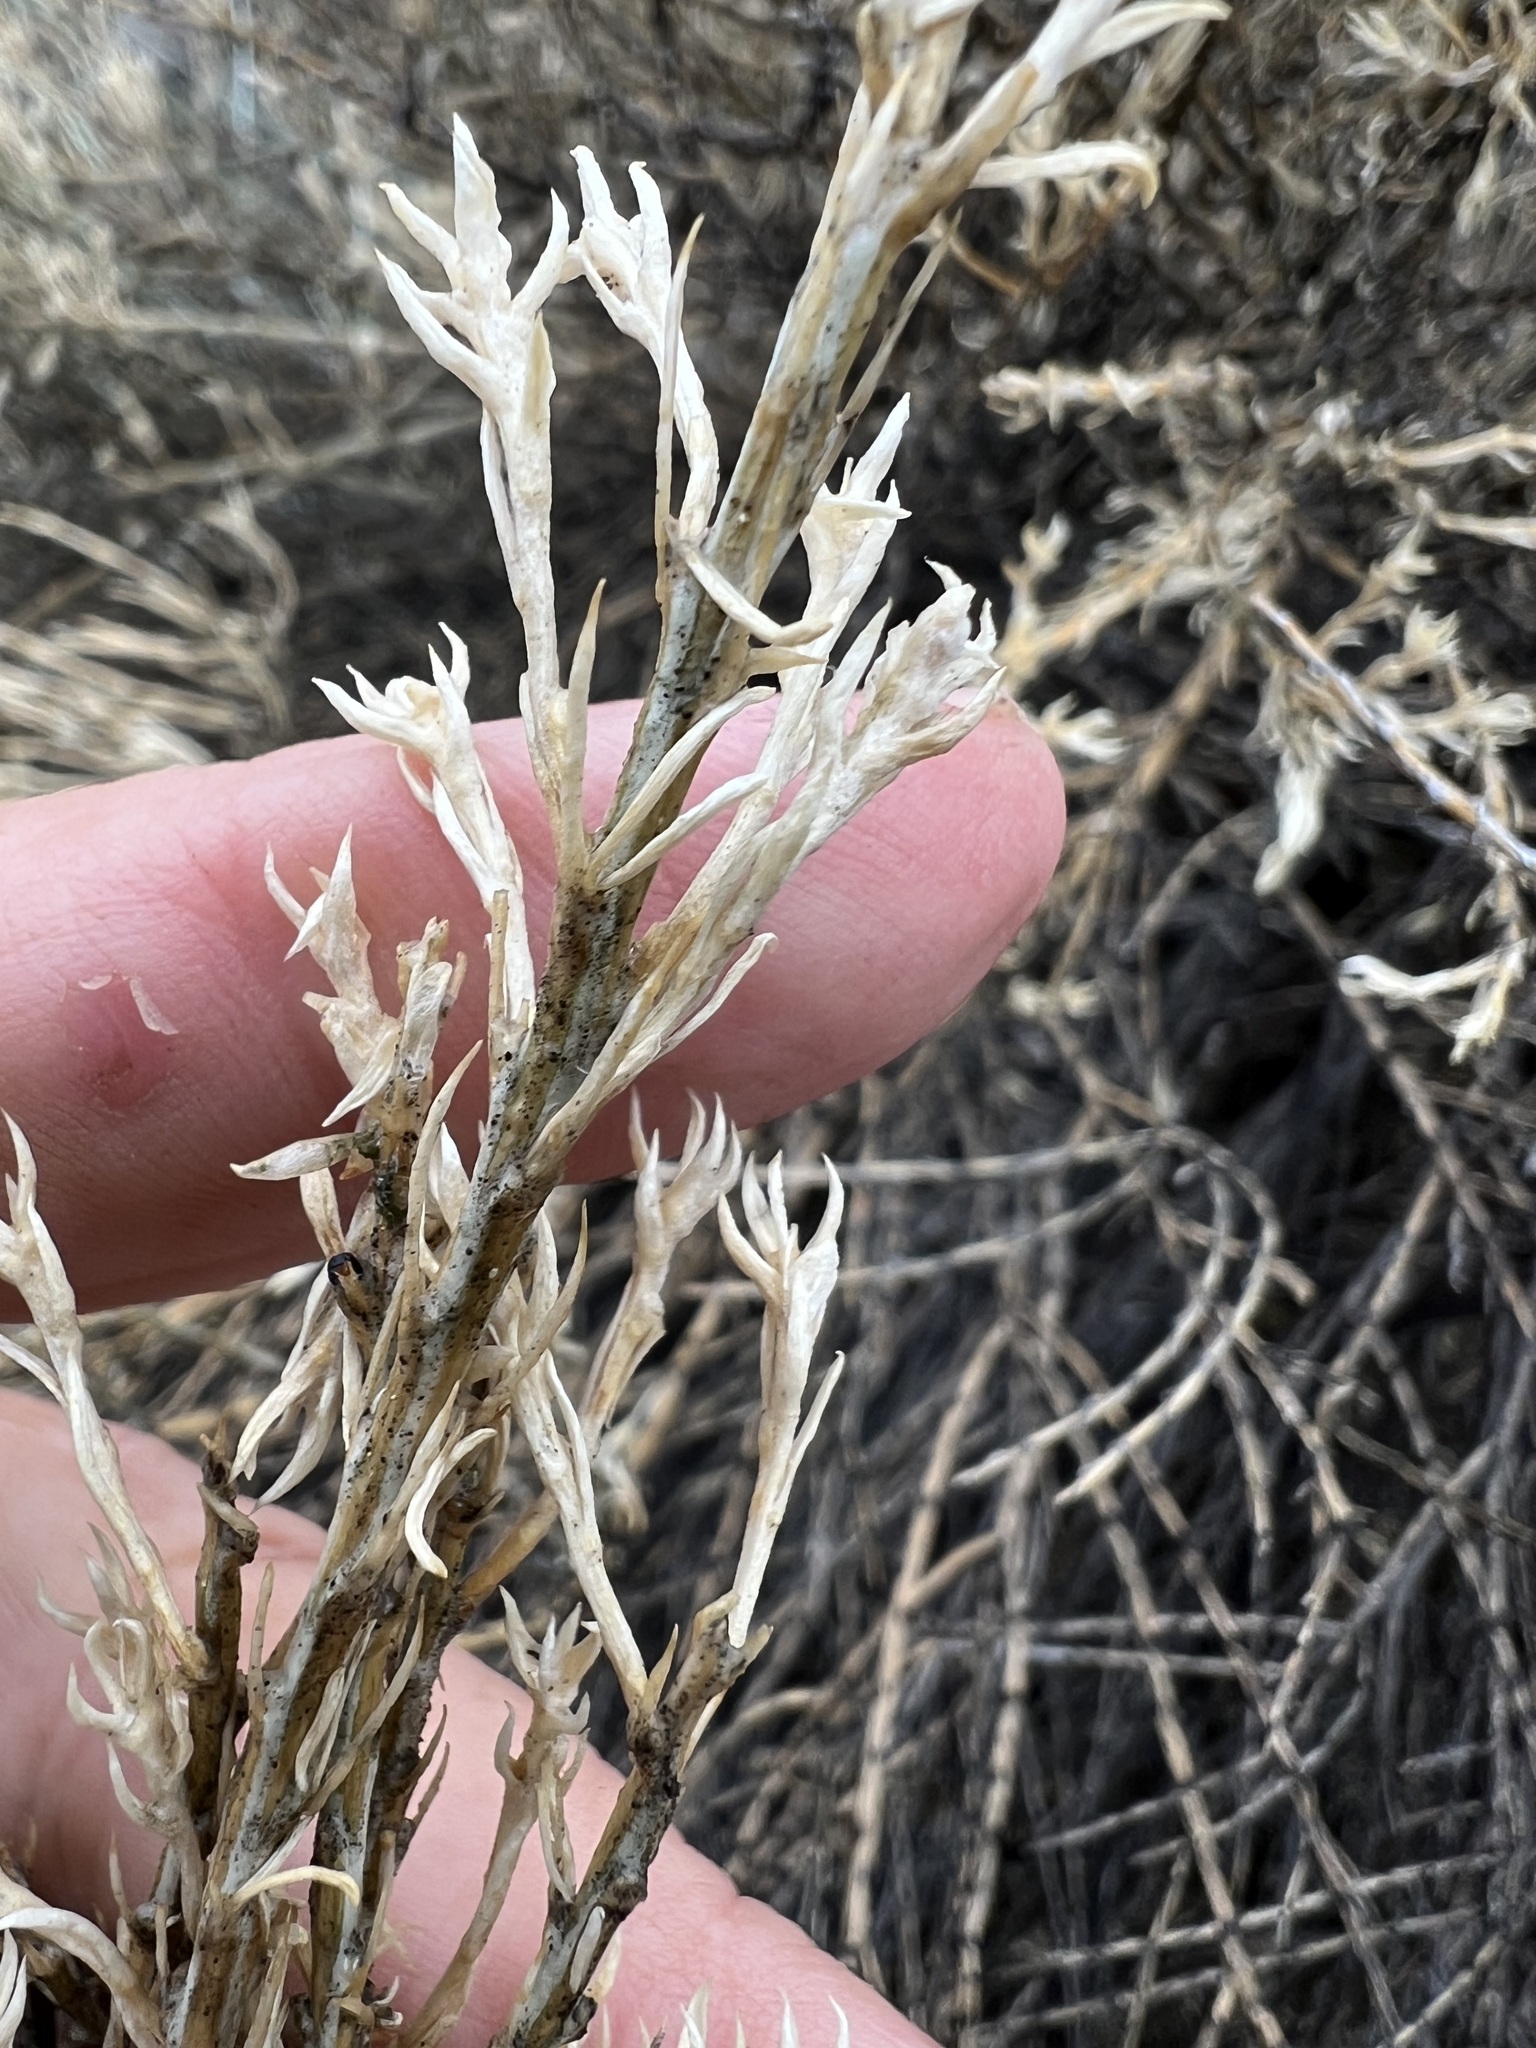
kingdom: Plantae
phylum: Tracheophyta
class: Magnoliopsida
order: Asterales
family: Asteraceae
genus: Tetradymia
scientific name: Tetradymia glabrata
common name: Smooth tetradymia
